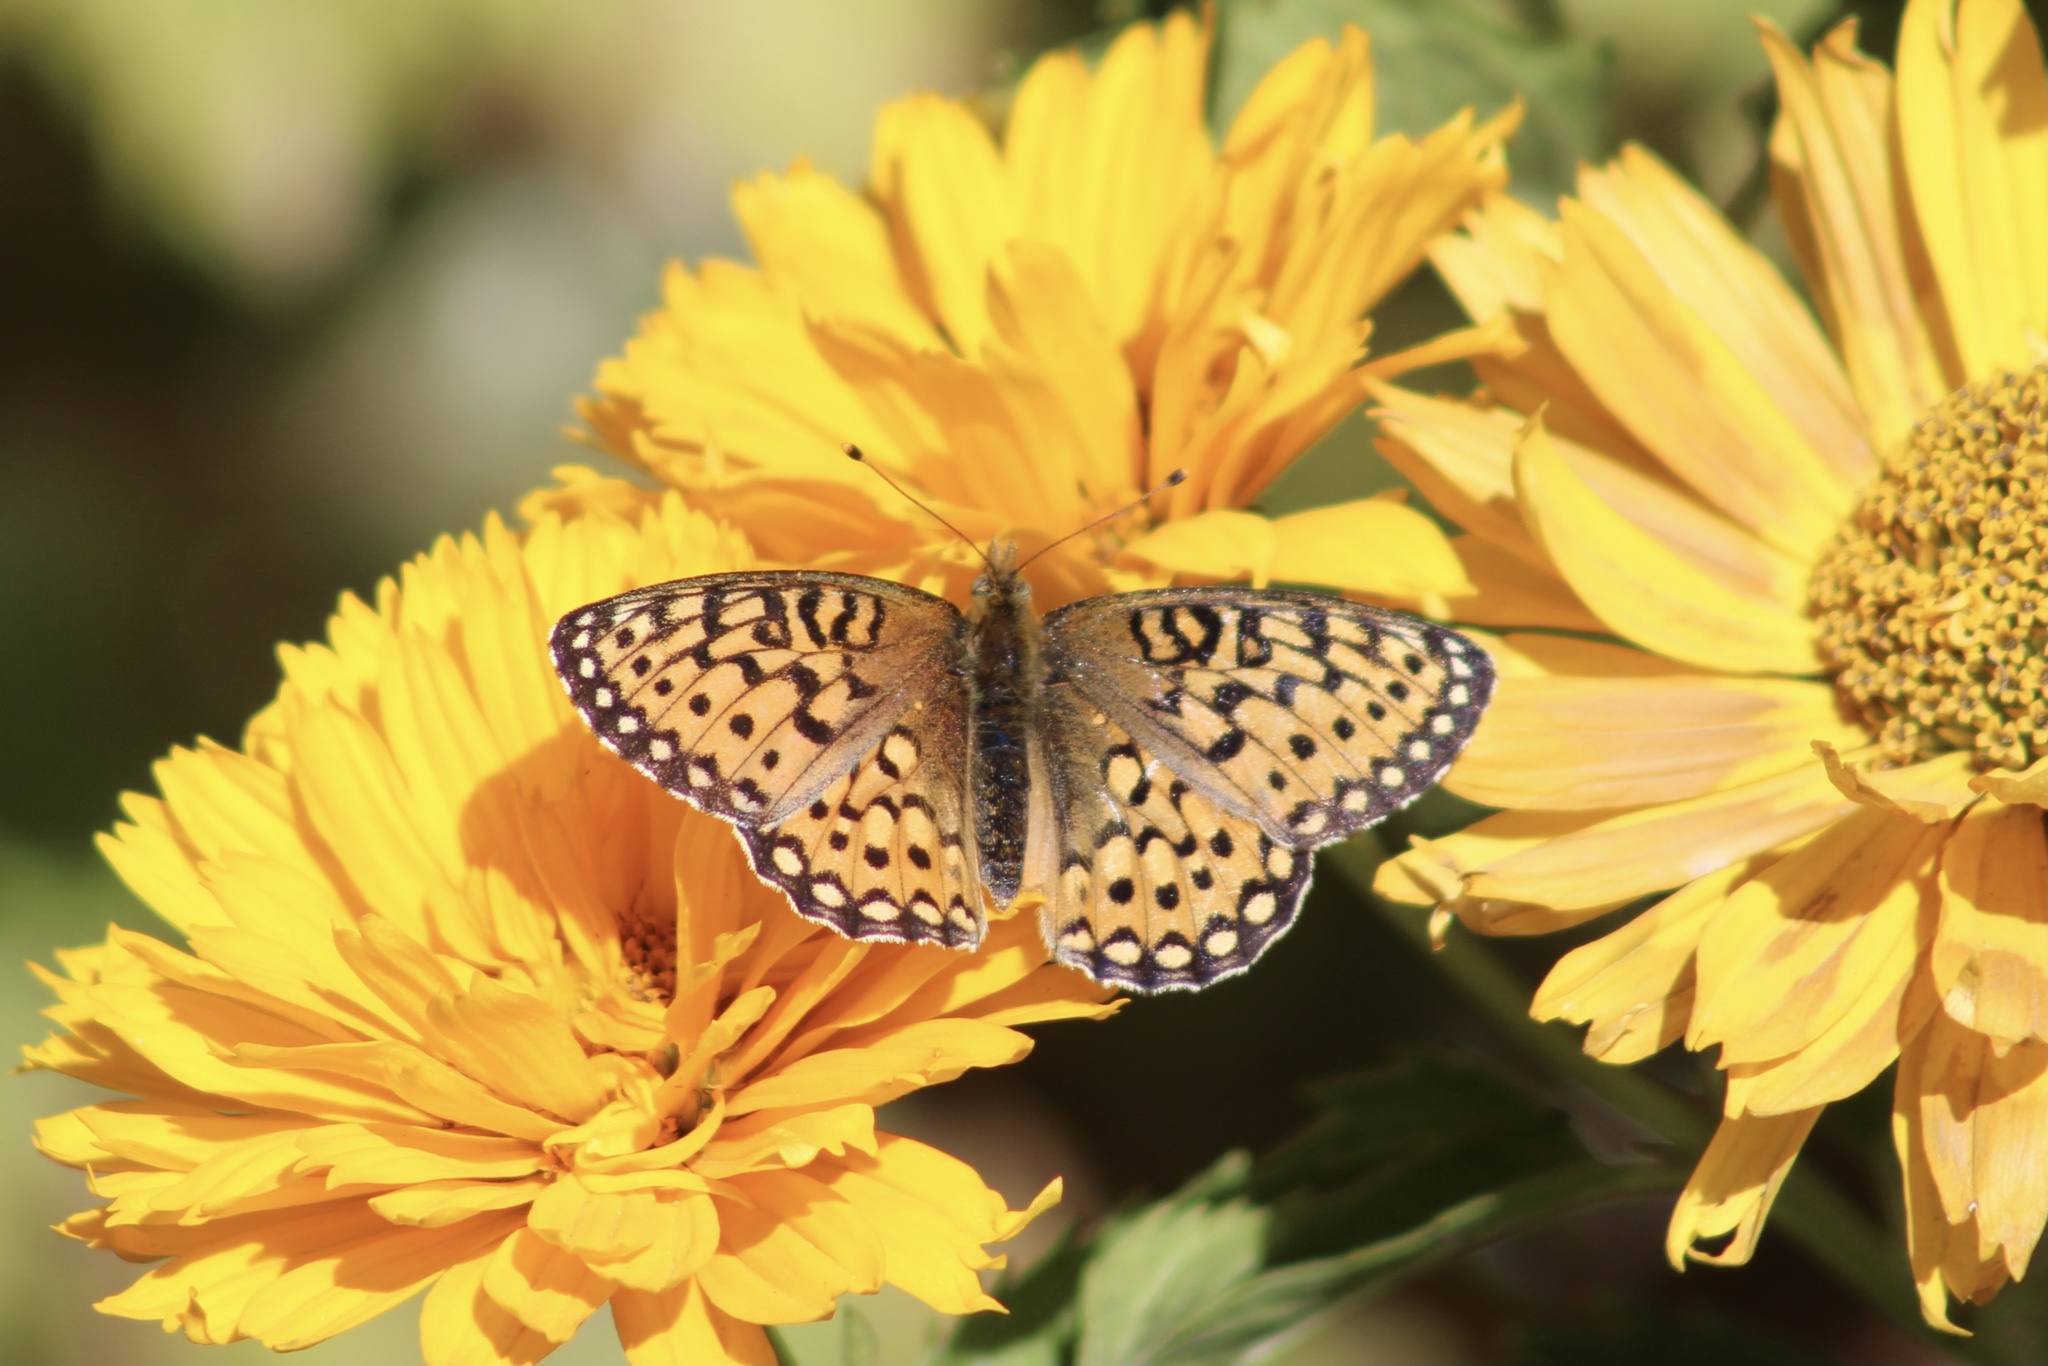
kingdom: Animalia
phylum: Arthropoda
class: Insecta
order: Lepidoptera
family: Nymphalidae
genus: Speyeria
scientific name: Speyeria mormonia
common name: Mormon fritillary
